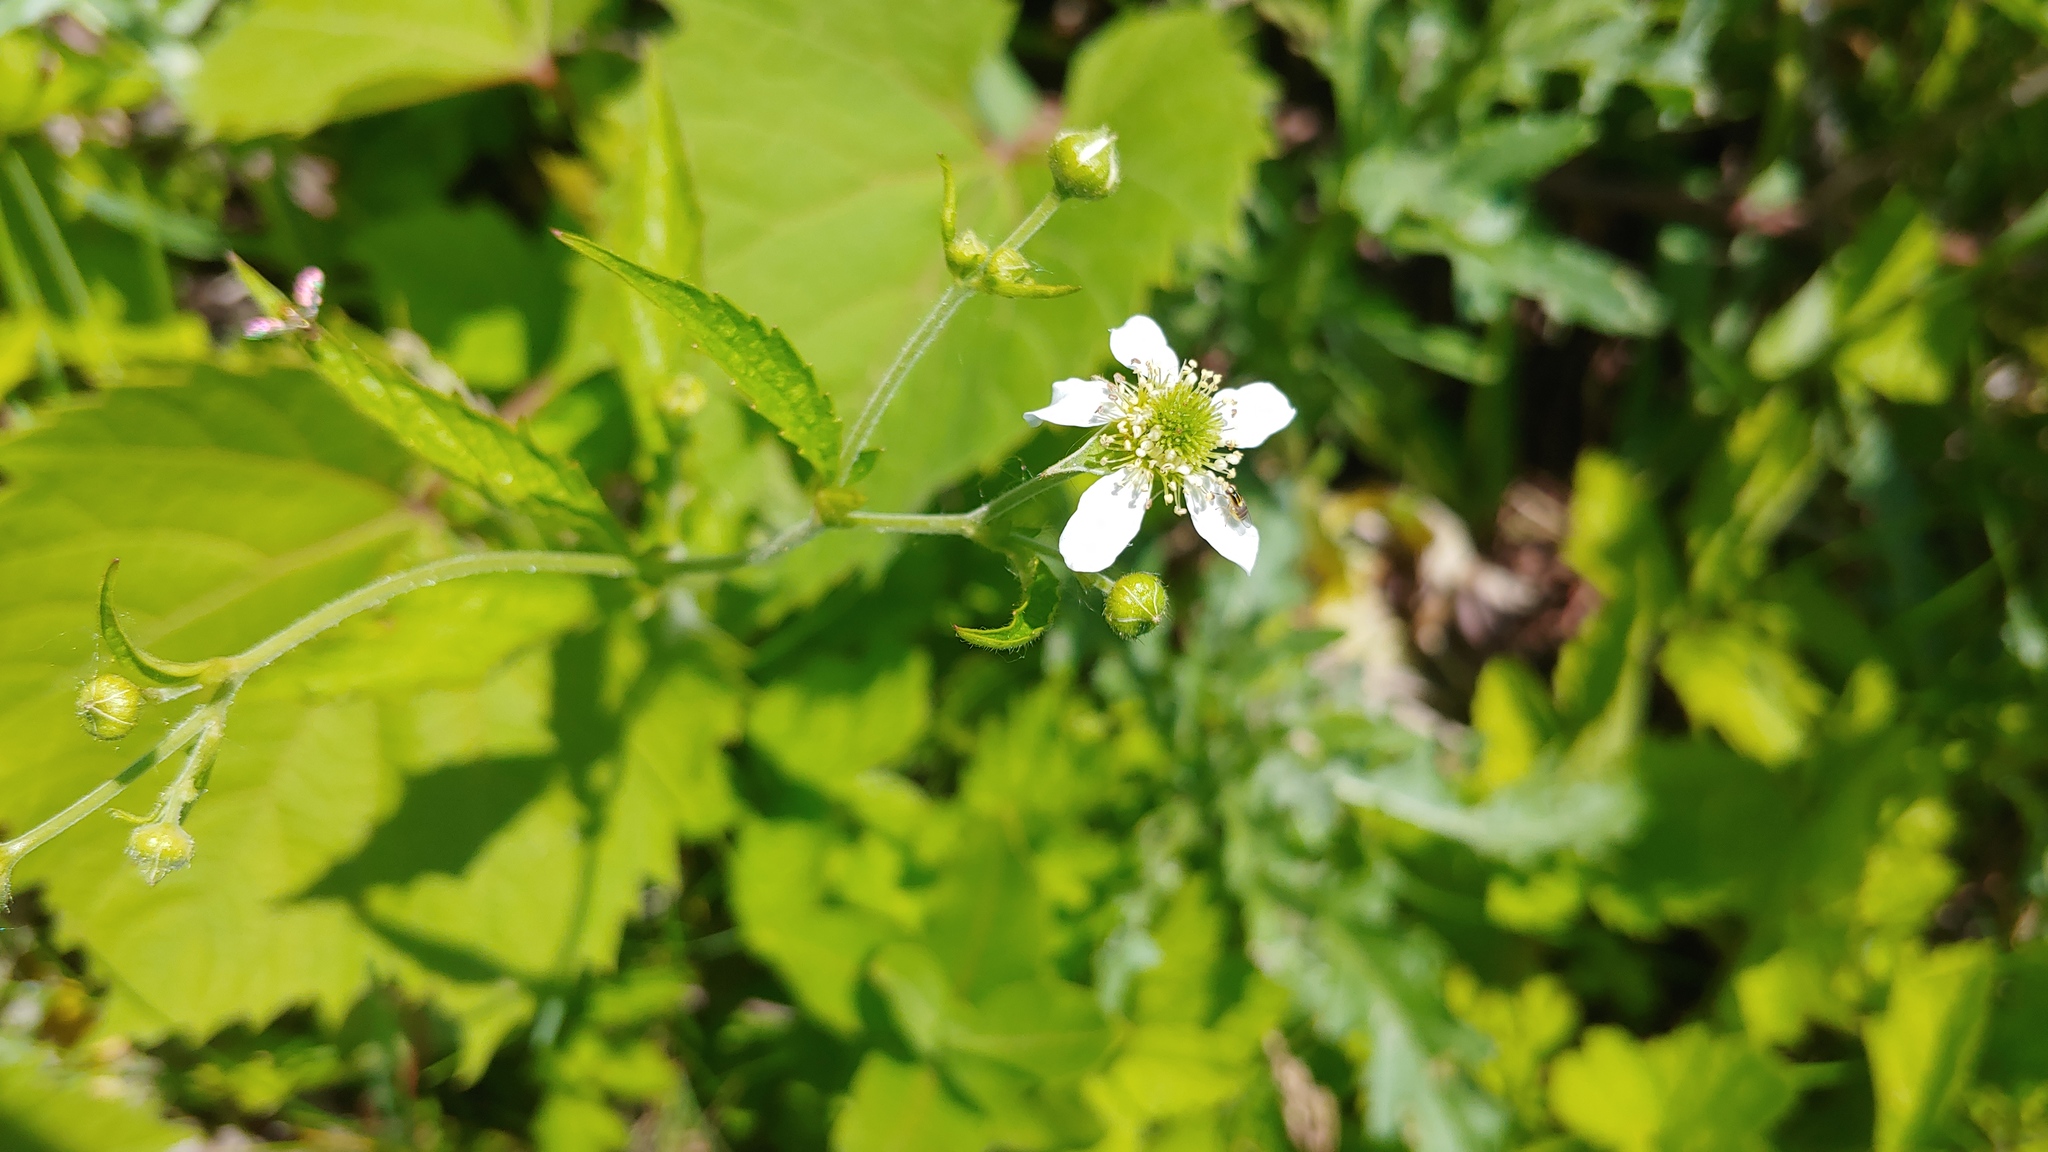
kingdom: Plantae
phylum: Tracheophyta
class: Magnoliopsida
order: Rosales
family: Rosaceae
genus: Geum
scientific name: Geum canadense
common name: White avens
